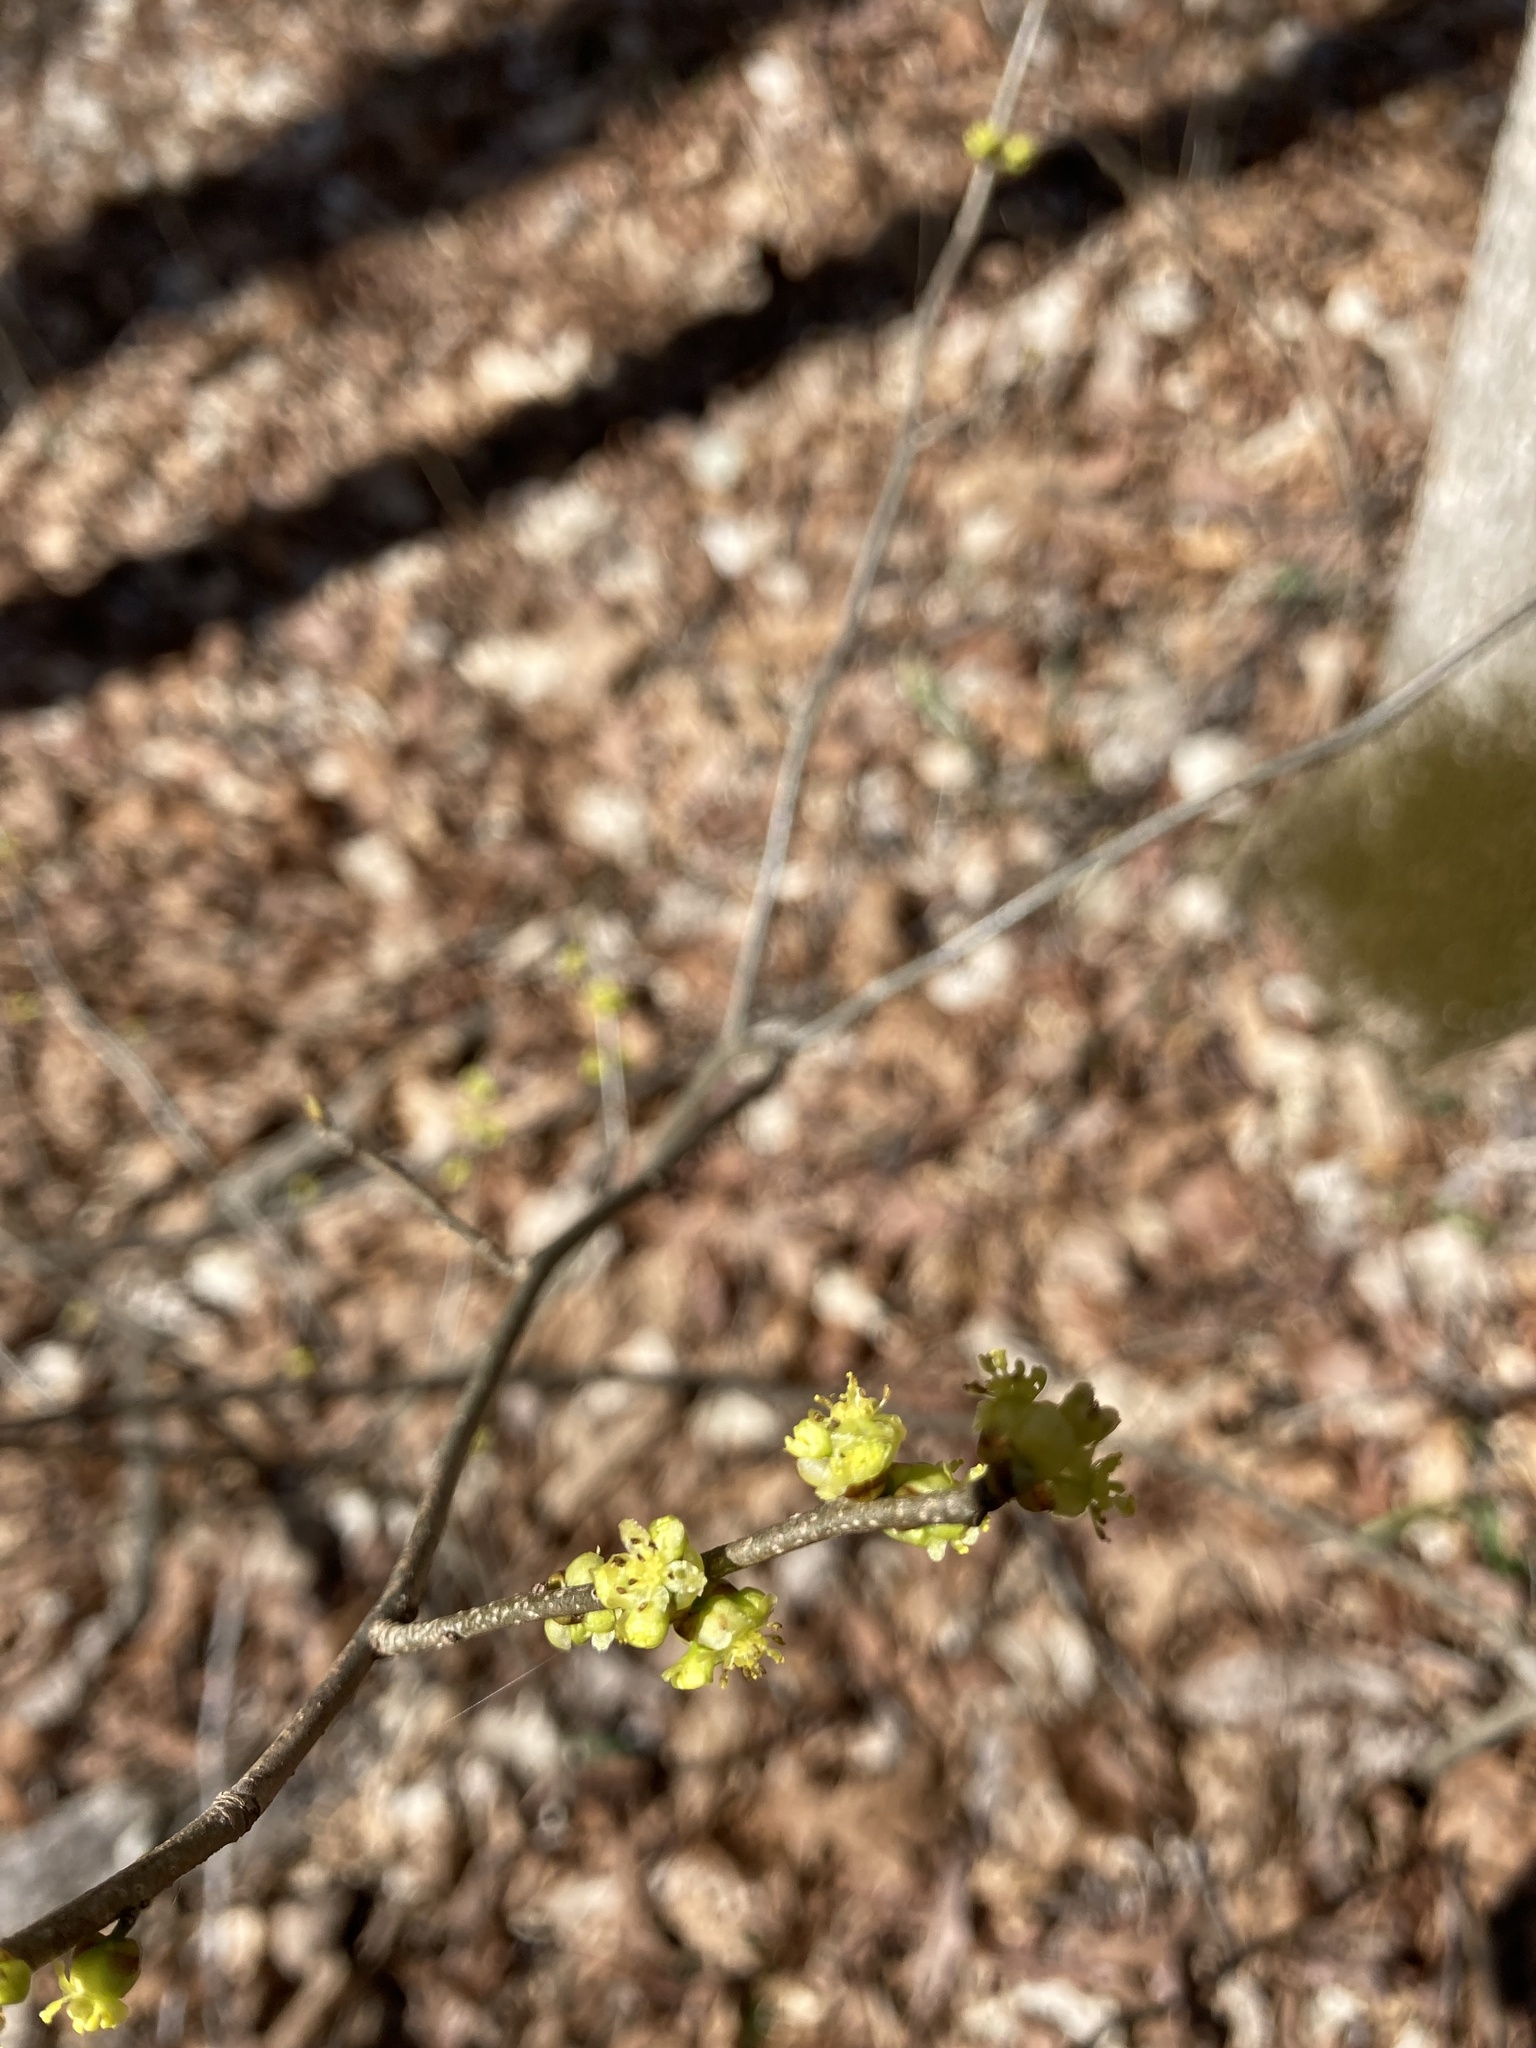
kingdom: Plantae
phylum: Tracheophyta
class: Magnoliopsida
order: Laurales
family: Lauraceae
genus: Lindera
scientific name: Lindera benzoin
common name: Spicebush
